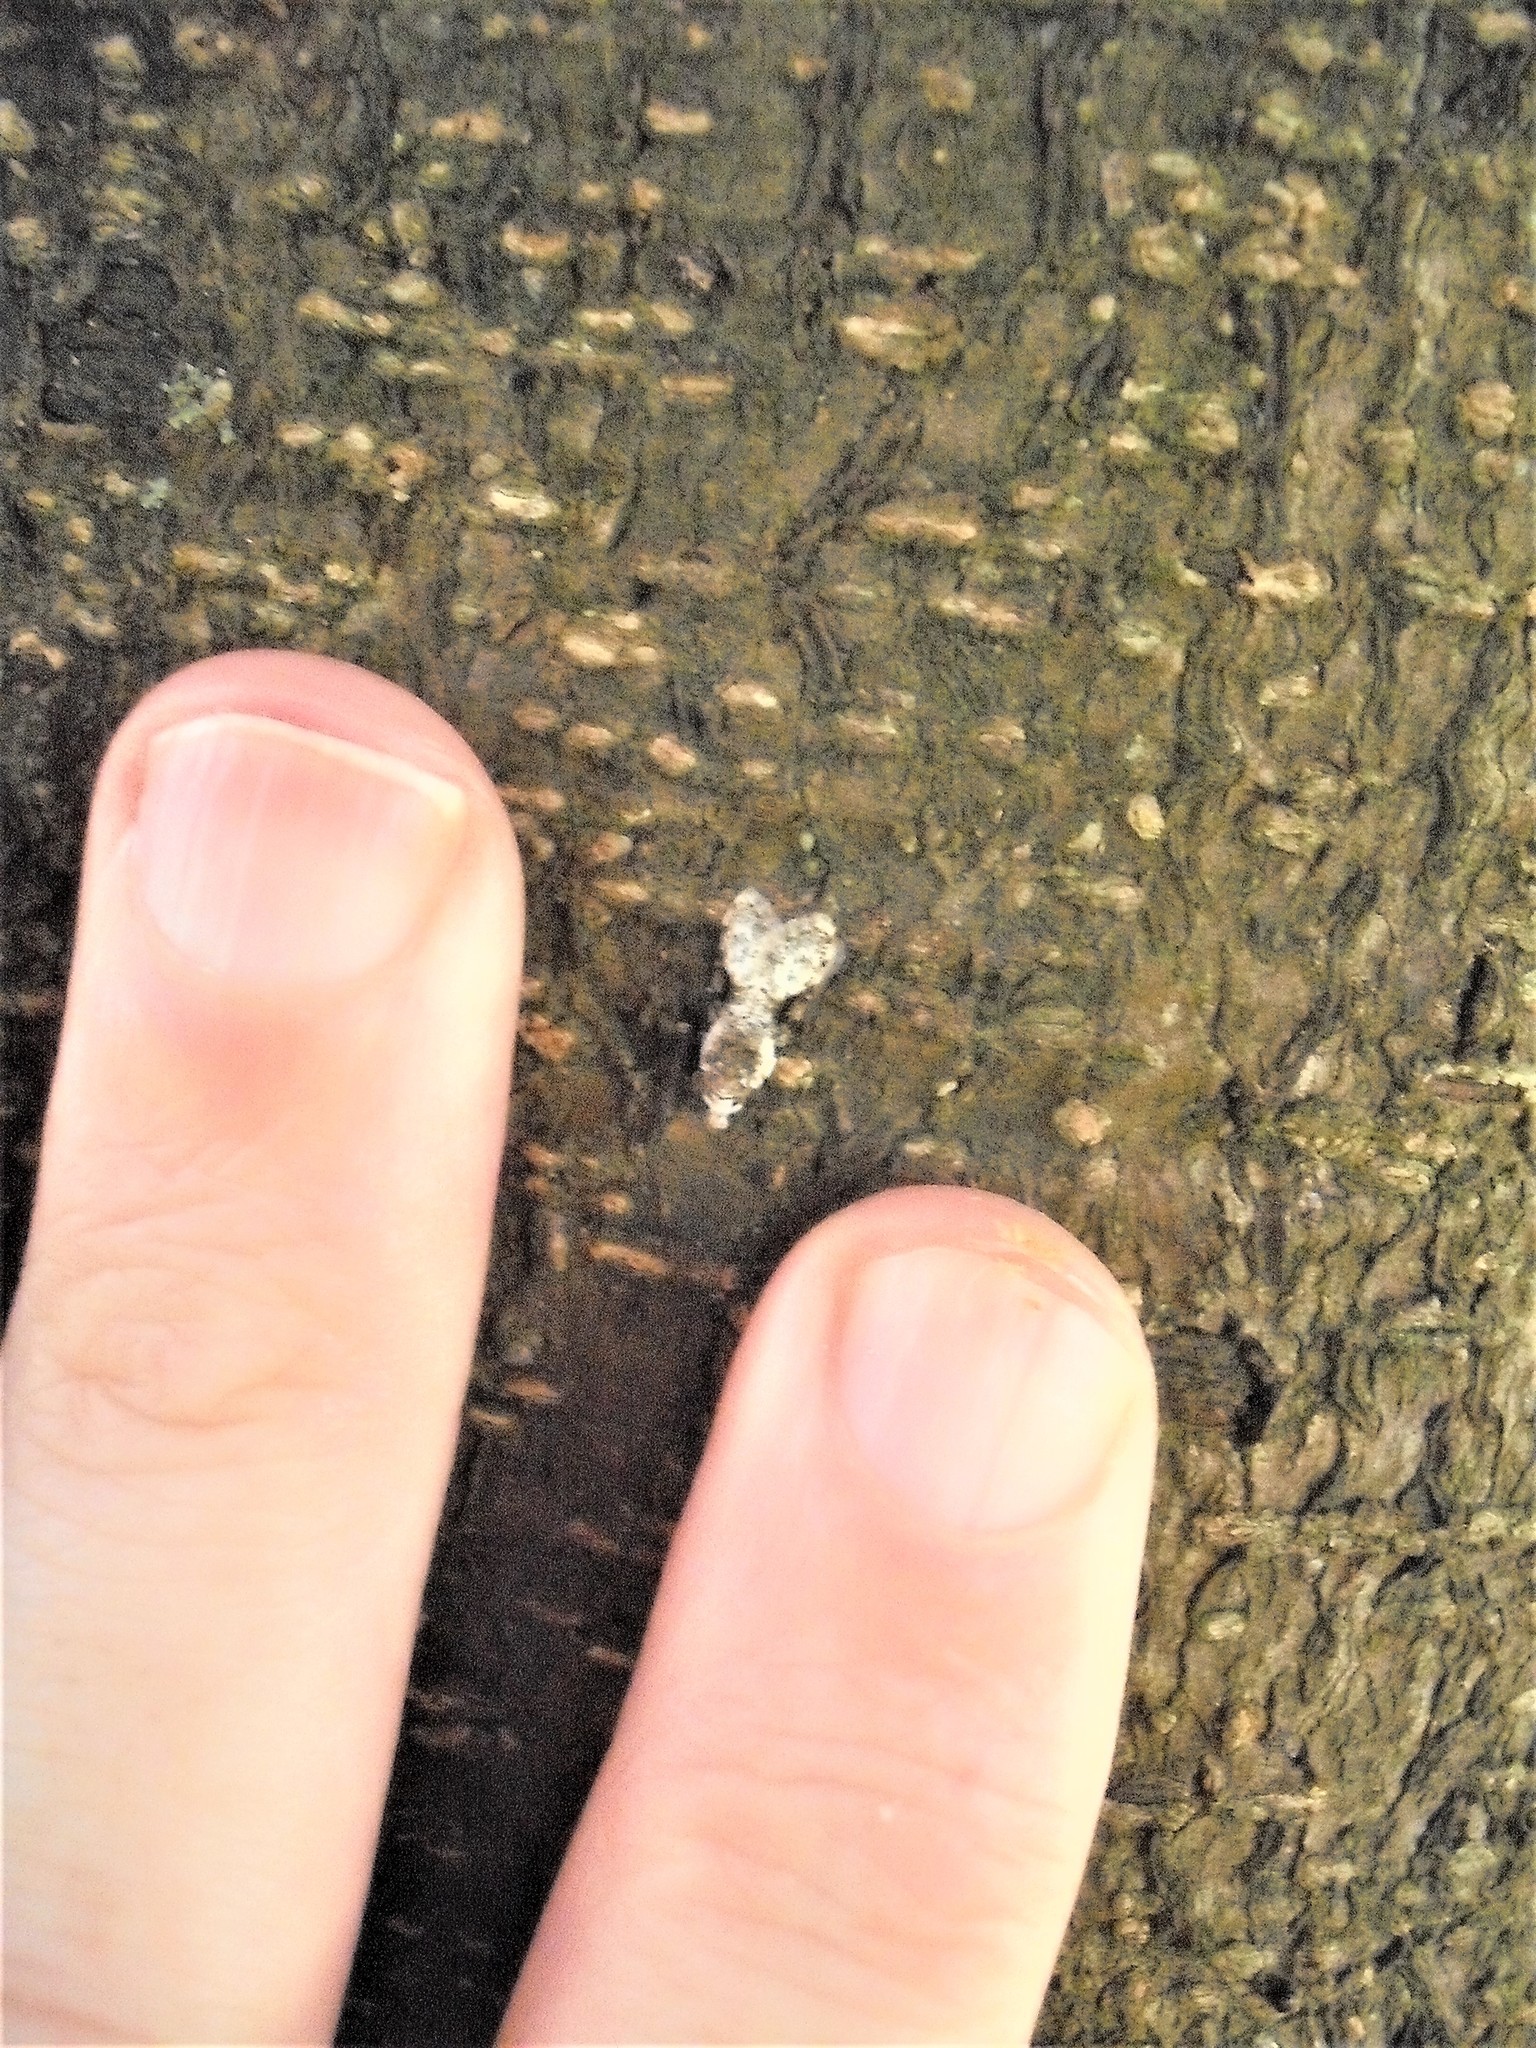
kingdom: Animalia
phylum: Arthropoda
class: Insecta
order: Lepidoptera
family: Carposinidae
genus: Coscinoptycha
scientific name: Coscinoptycha improbana
